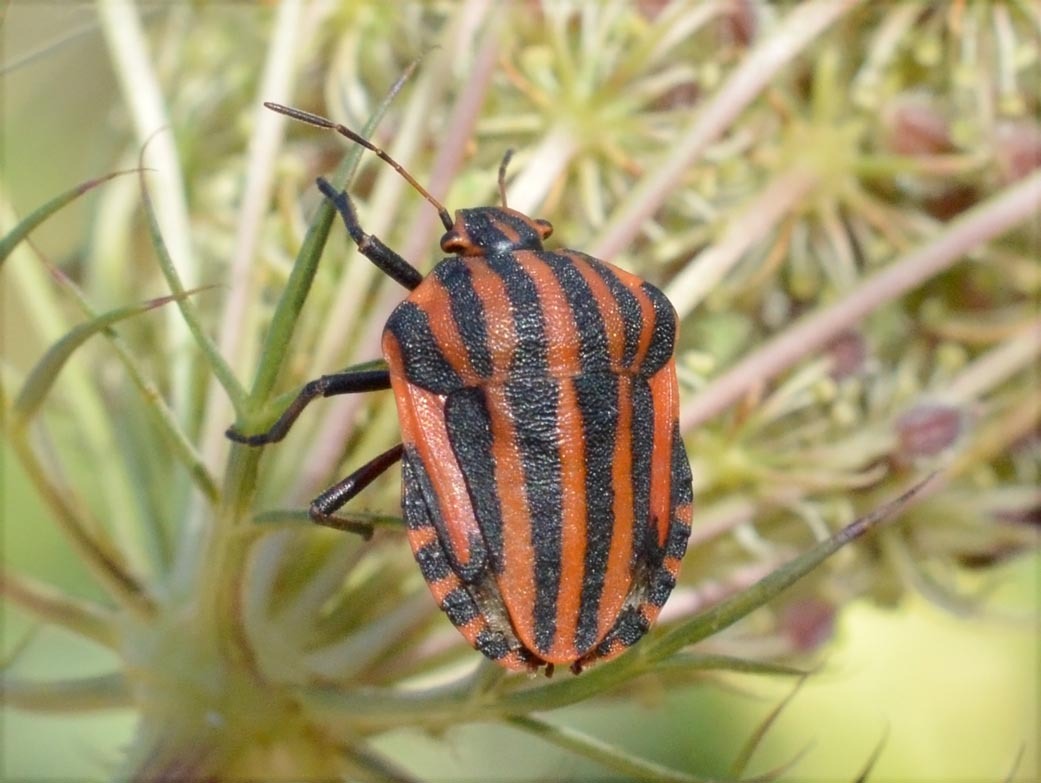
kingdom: Animalia
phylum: Arthropoda
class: Insecta
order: Hemiptera
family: Pentatomidae
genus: Graphosoma
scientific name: Graphosoma italicum
